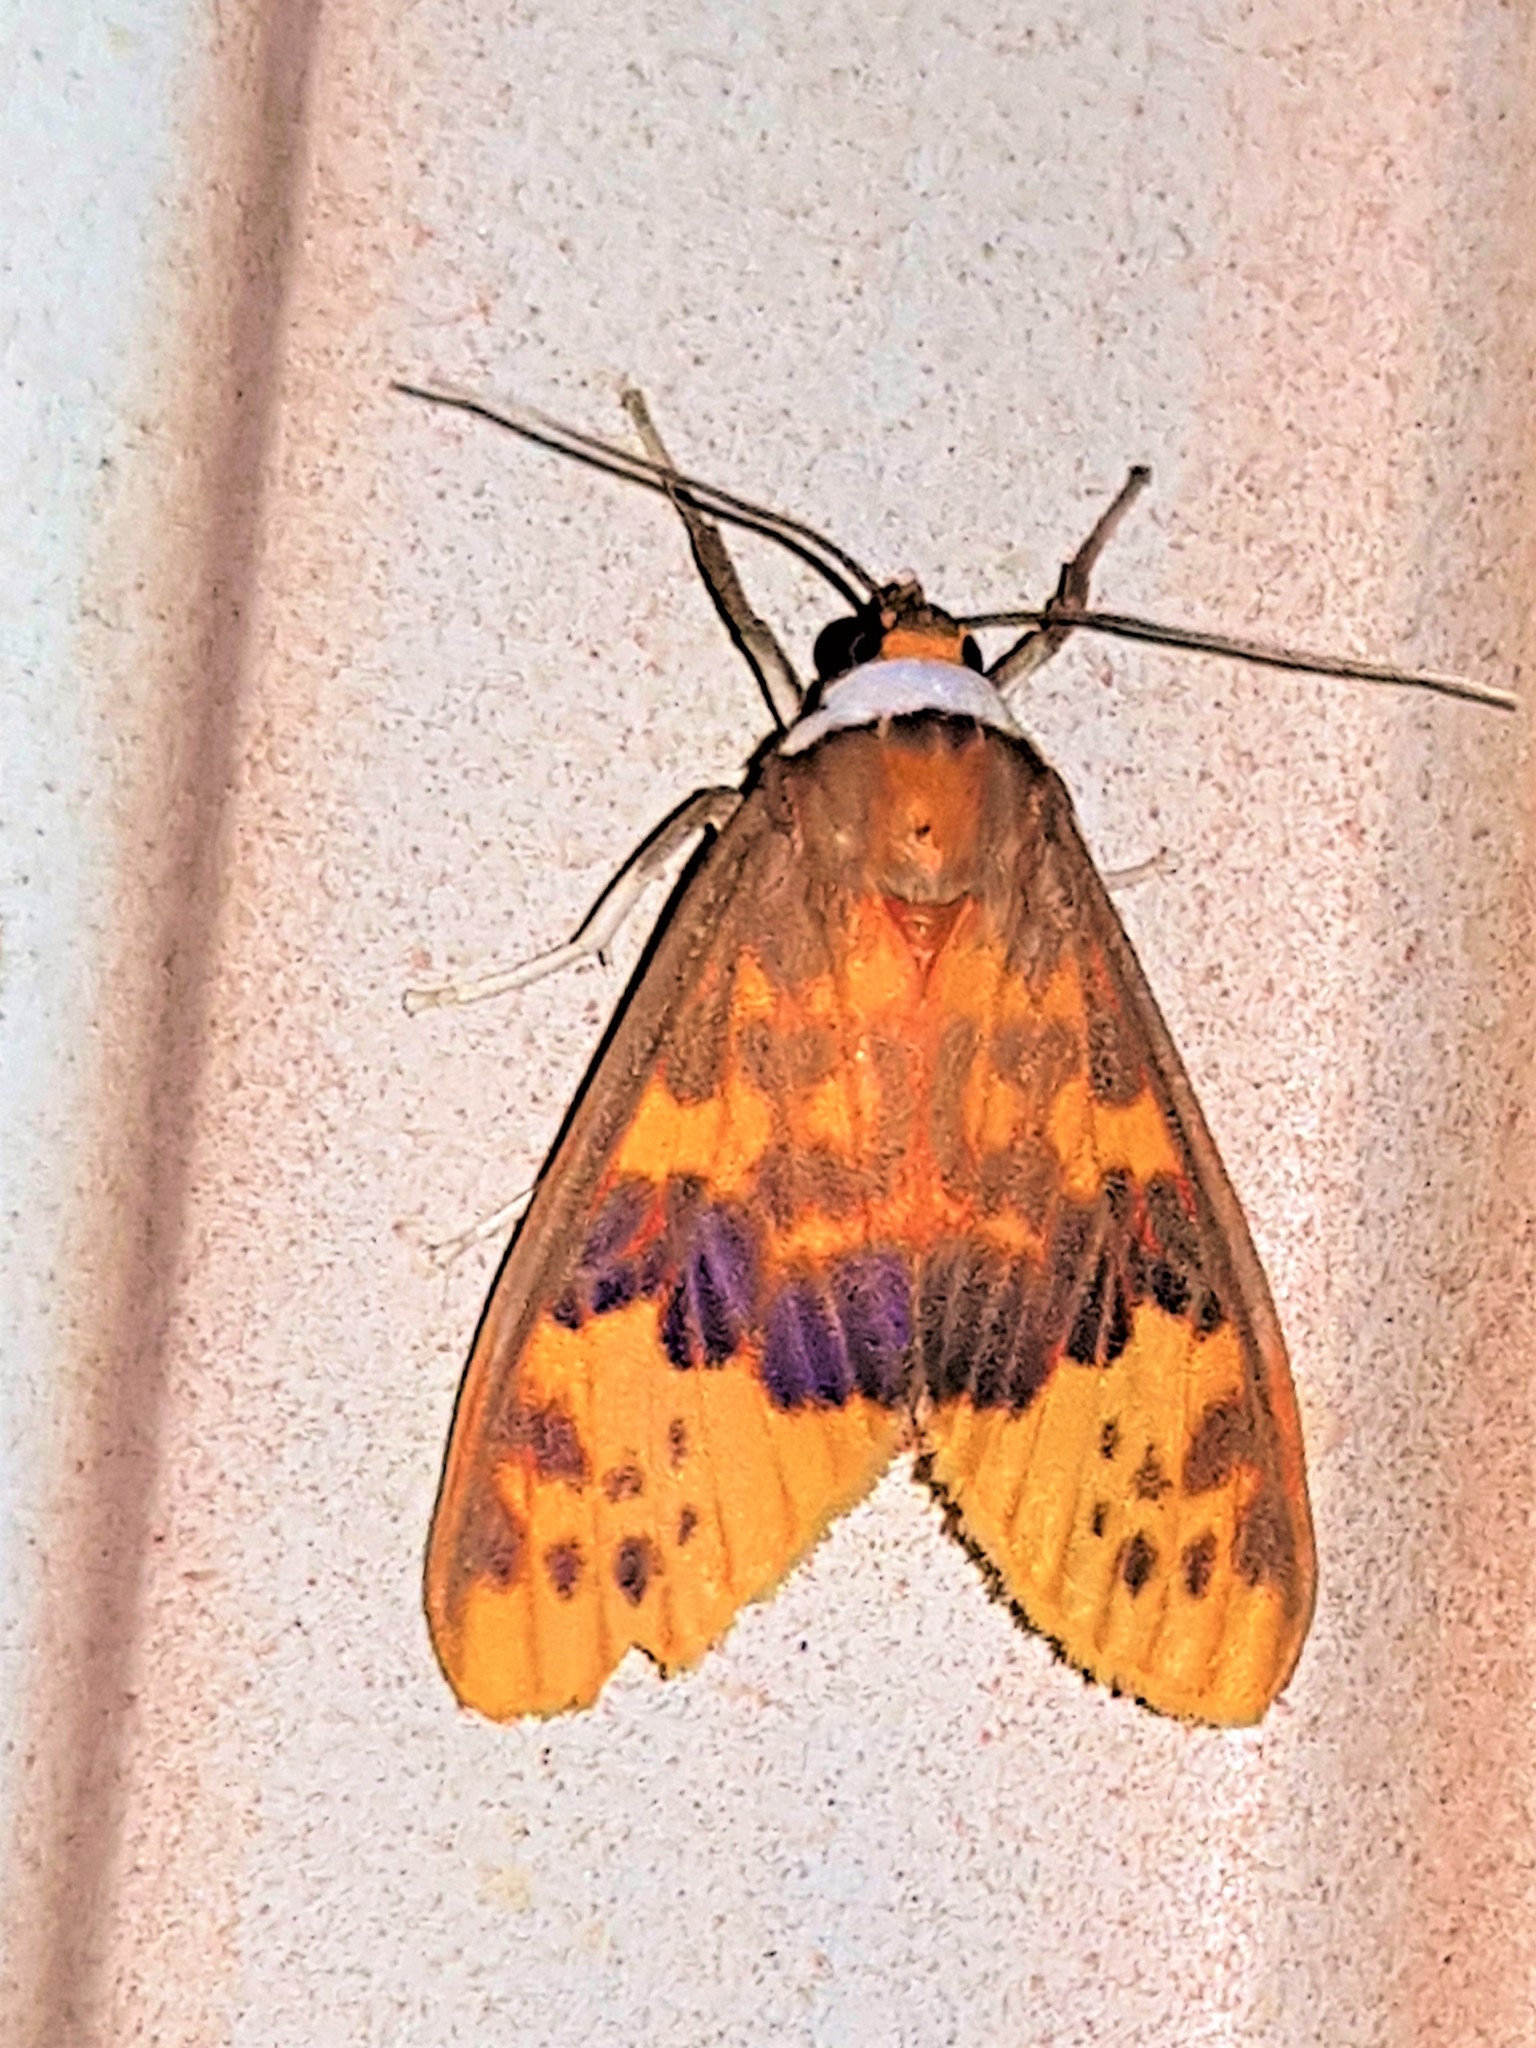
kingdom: Animalia
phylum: Arthropoda
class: Insecta
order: Lepidoptera
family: Erebidae
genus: Evius
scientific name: Evius hippia
